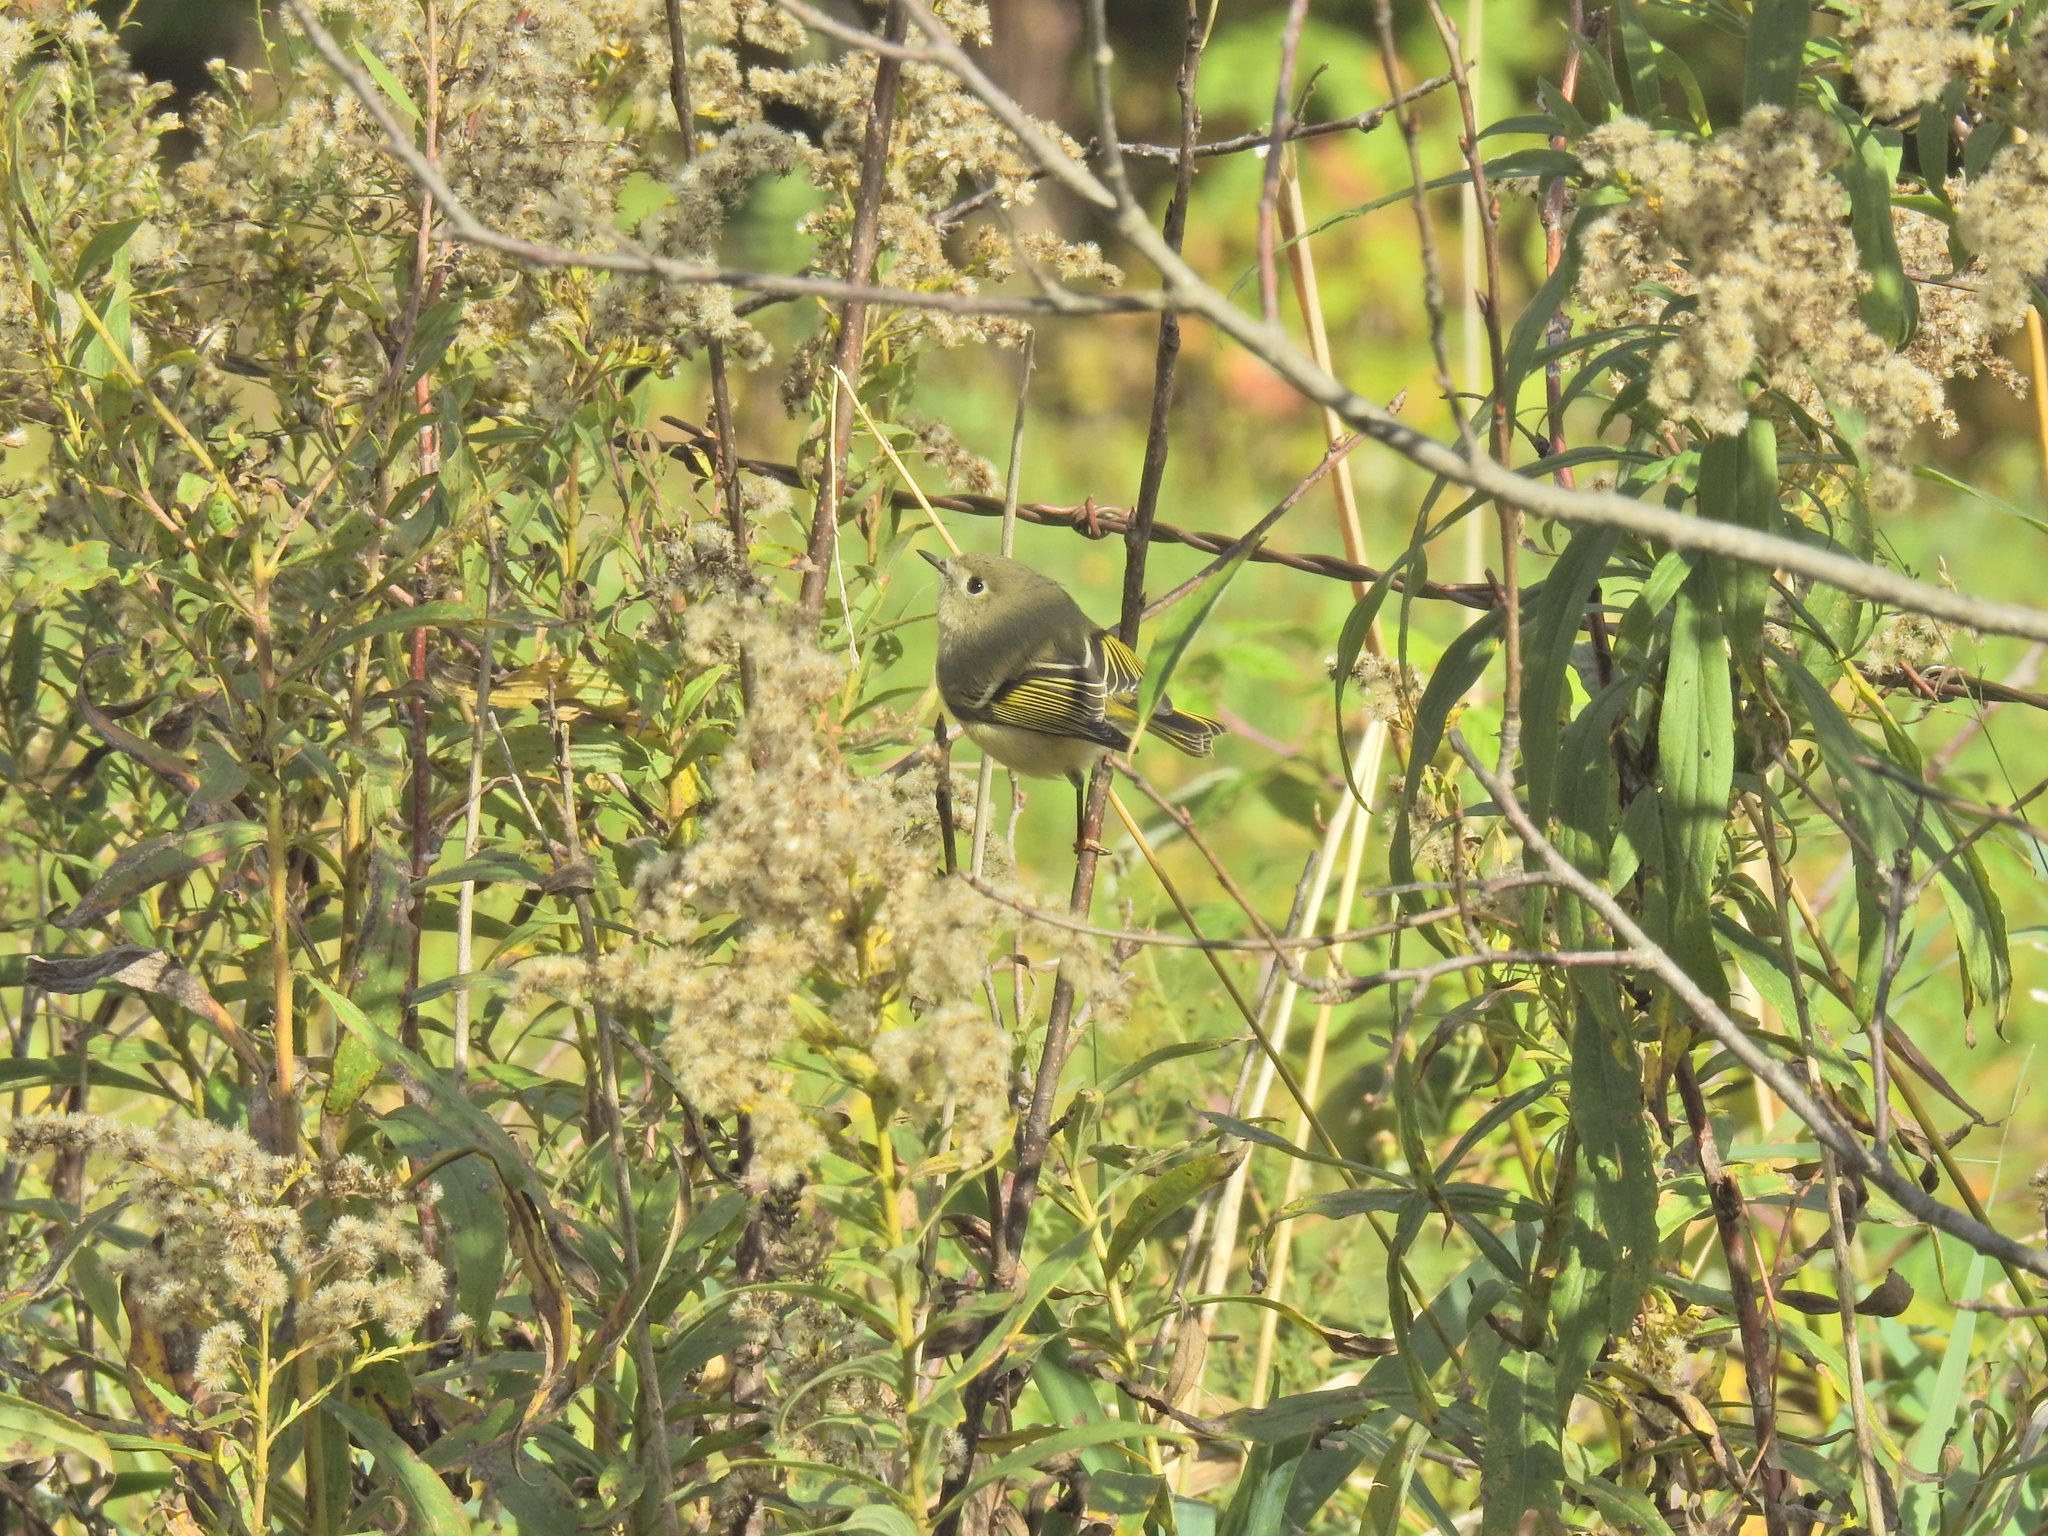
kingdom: Animalia
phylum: Chordata
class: Aves
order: Passeriformes
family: Regulidae
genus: Regulus
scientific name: Regulus calendula
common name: Ruby-crowned kinglet
